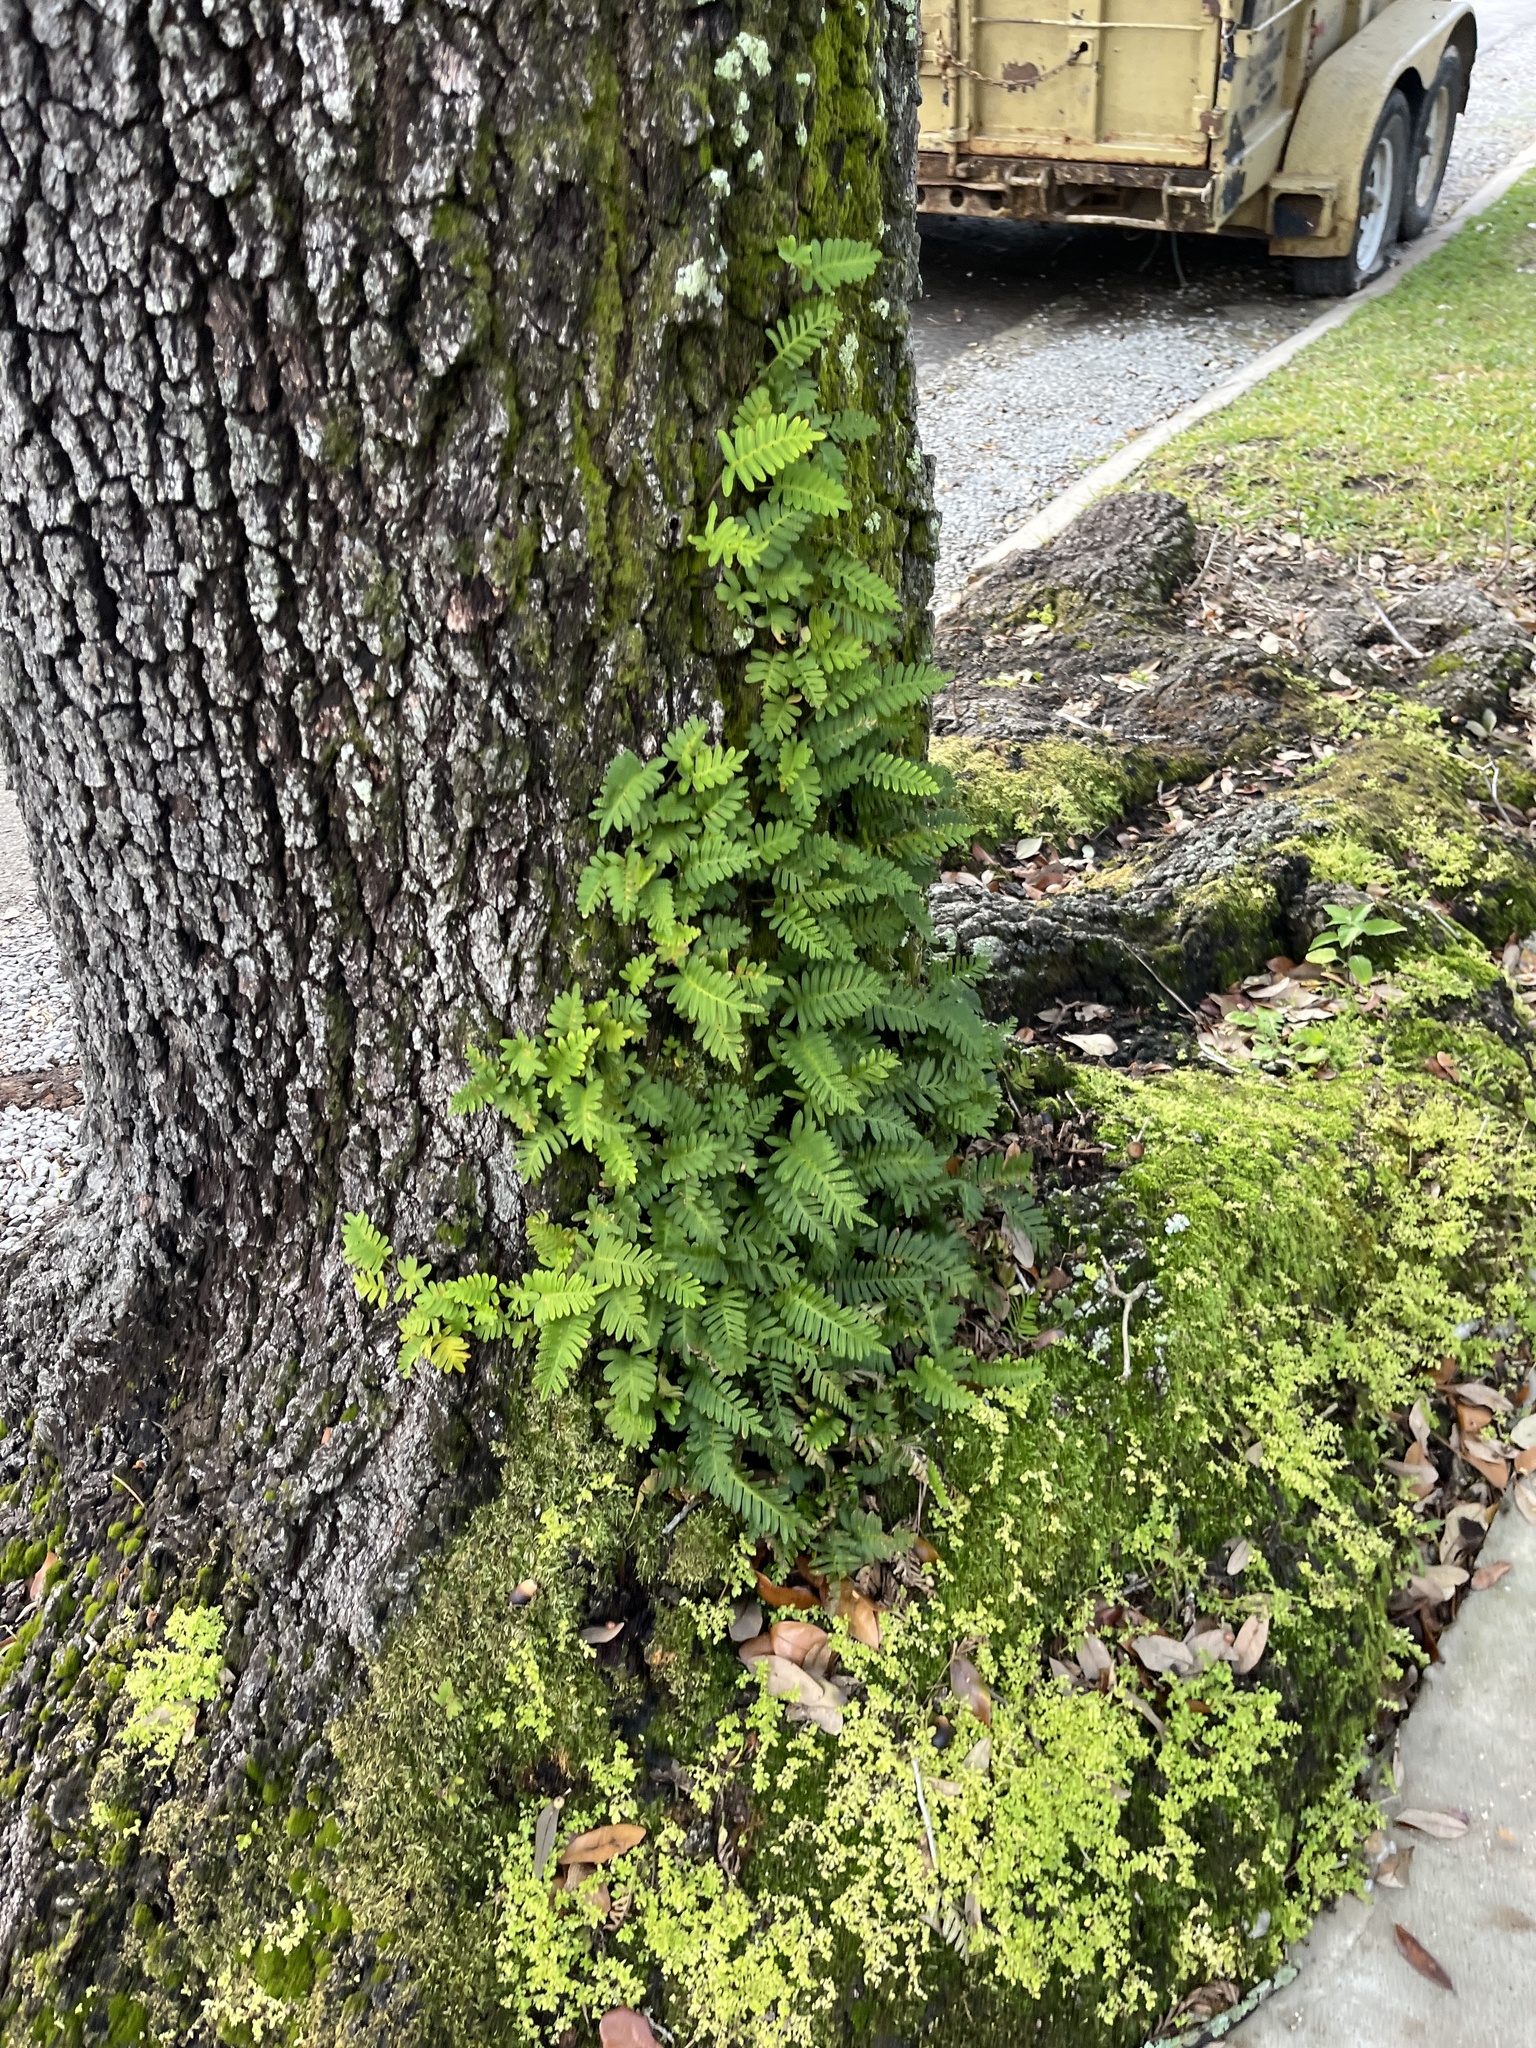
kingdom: Plantae
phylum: Tracheophyta
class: Polypodiopsida
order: Polypodiales
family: Polypodiaceae
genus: Pleopeltis
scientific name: Pleopeltis michauxiana
